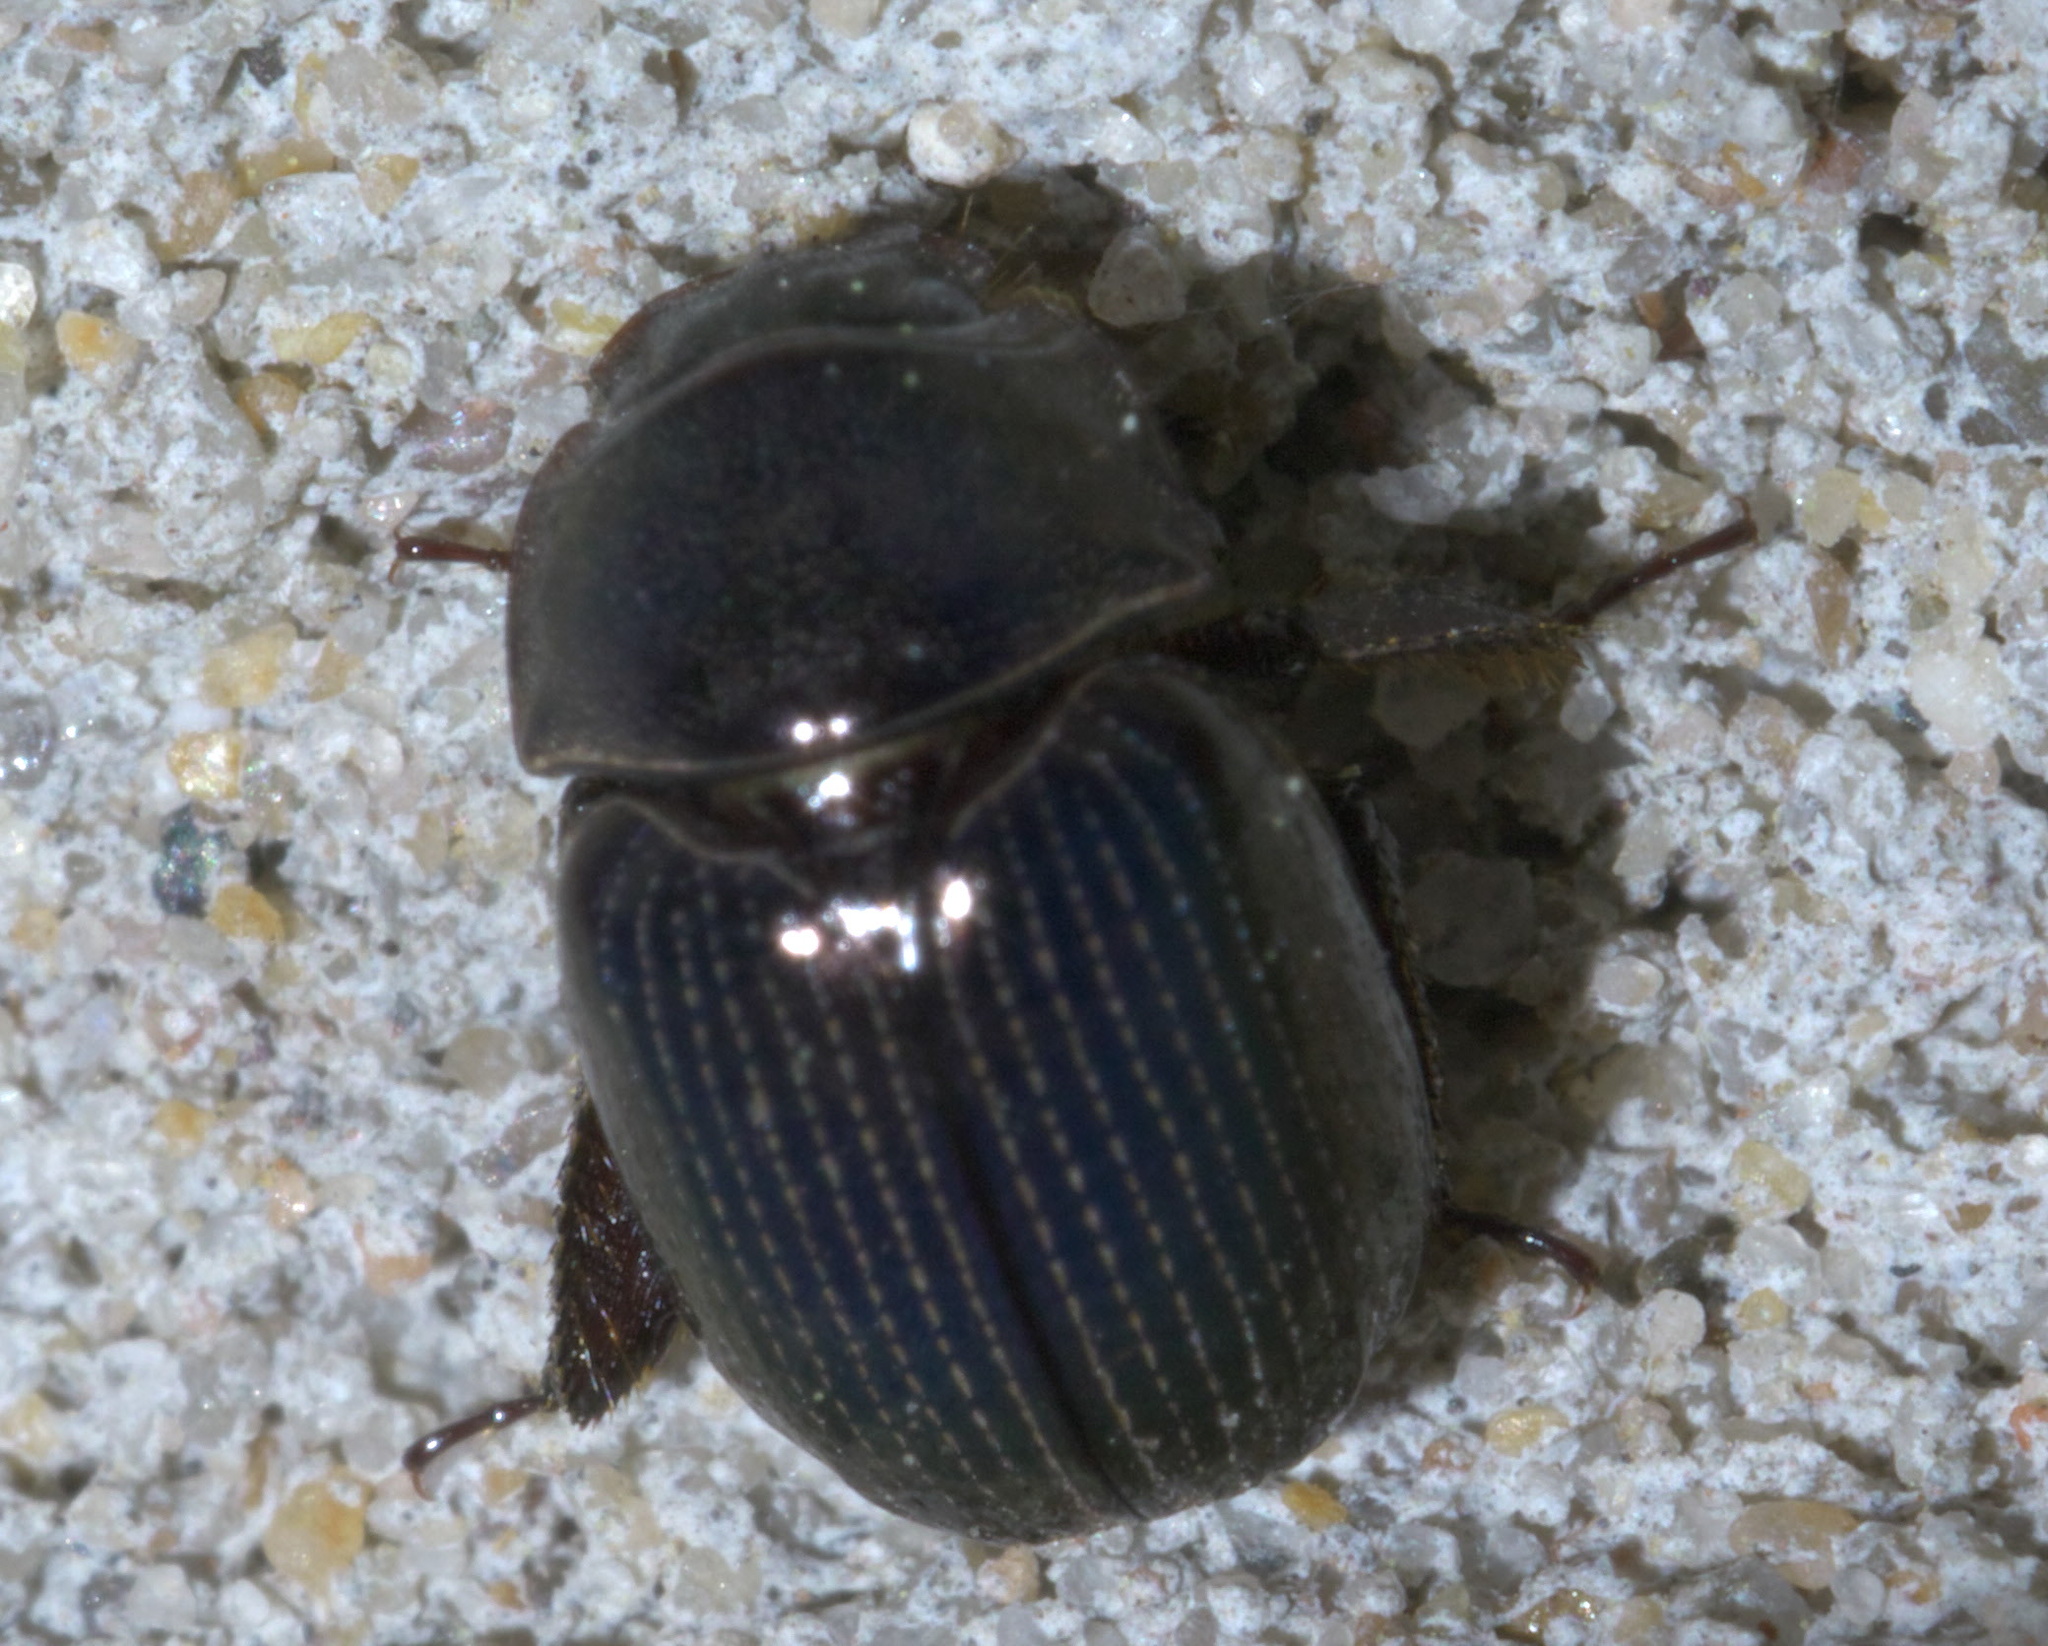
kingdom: Animalia
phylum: Arthropoda
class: Insecta
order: Coleoptera
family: Hybosoridae
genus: Germarostes
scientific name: Germarostes aphodioides
